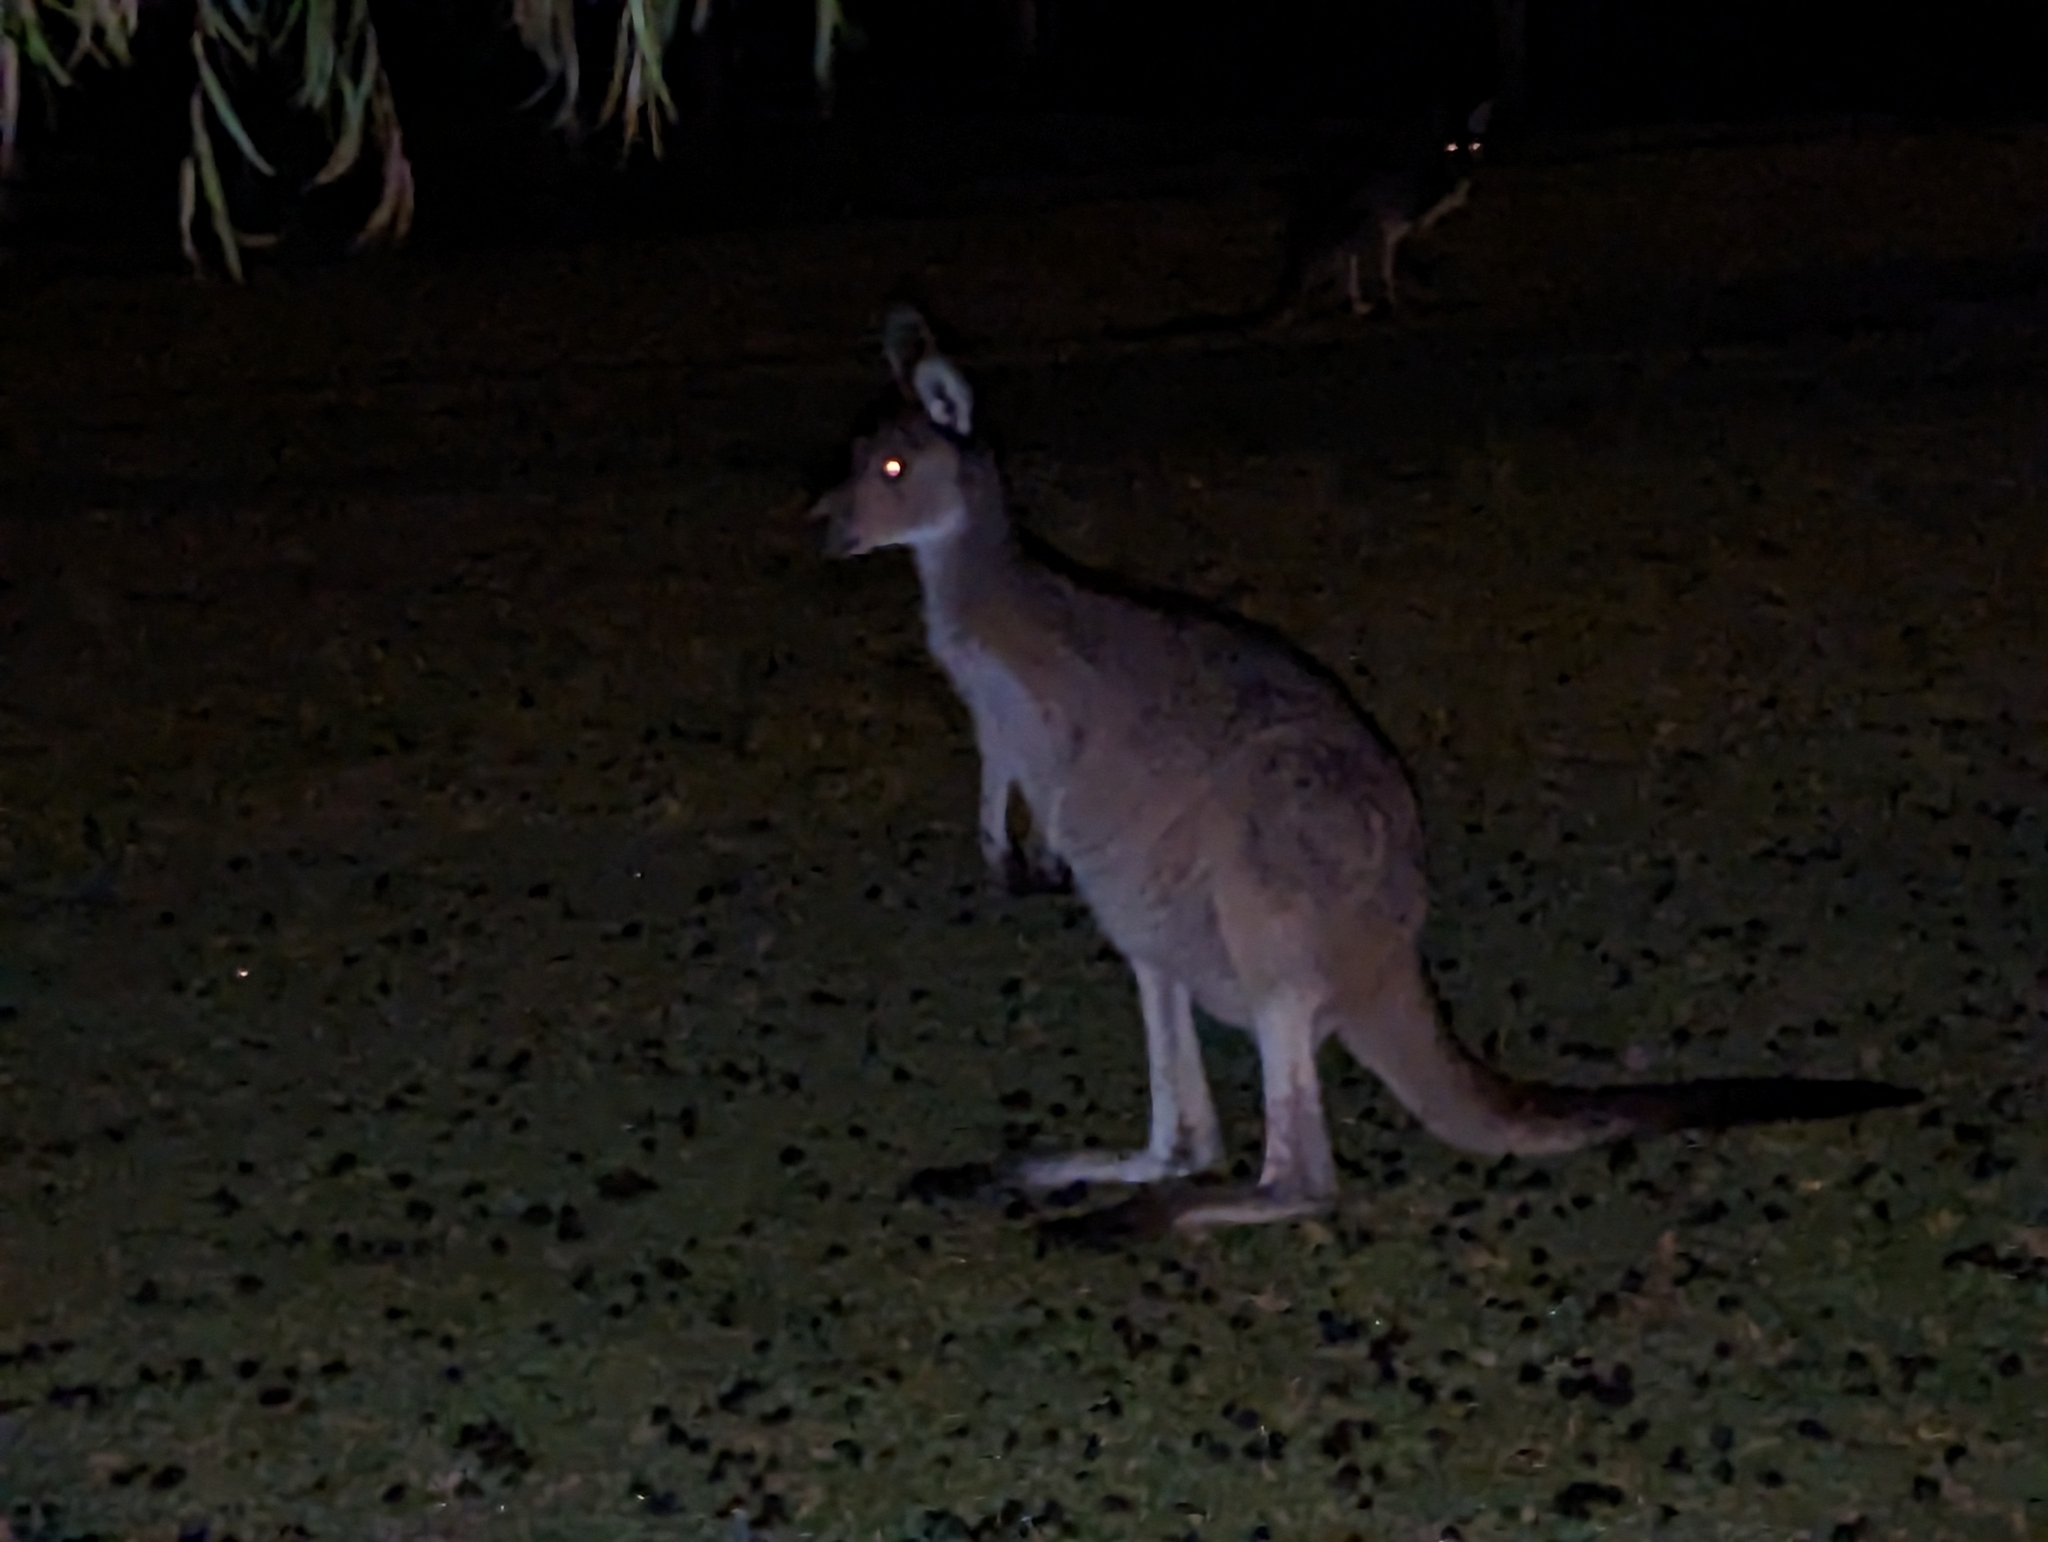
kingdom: Animalia
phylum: Chordata
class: Mammalia
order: Diprotodontia
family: Macropodidae
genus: Macropus
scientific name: Macropus fuliginosus
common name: Western grey kangaroo
